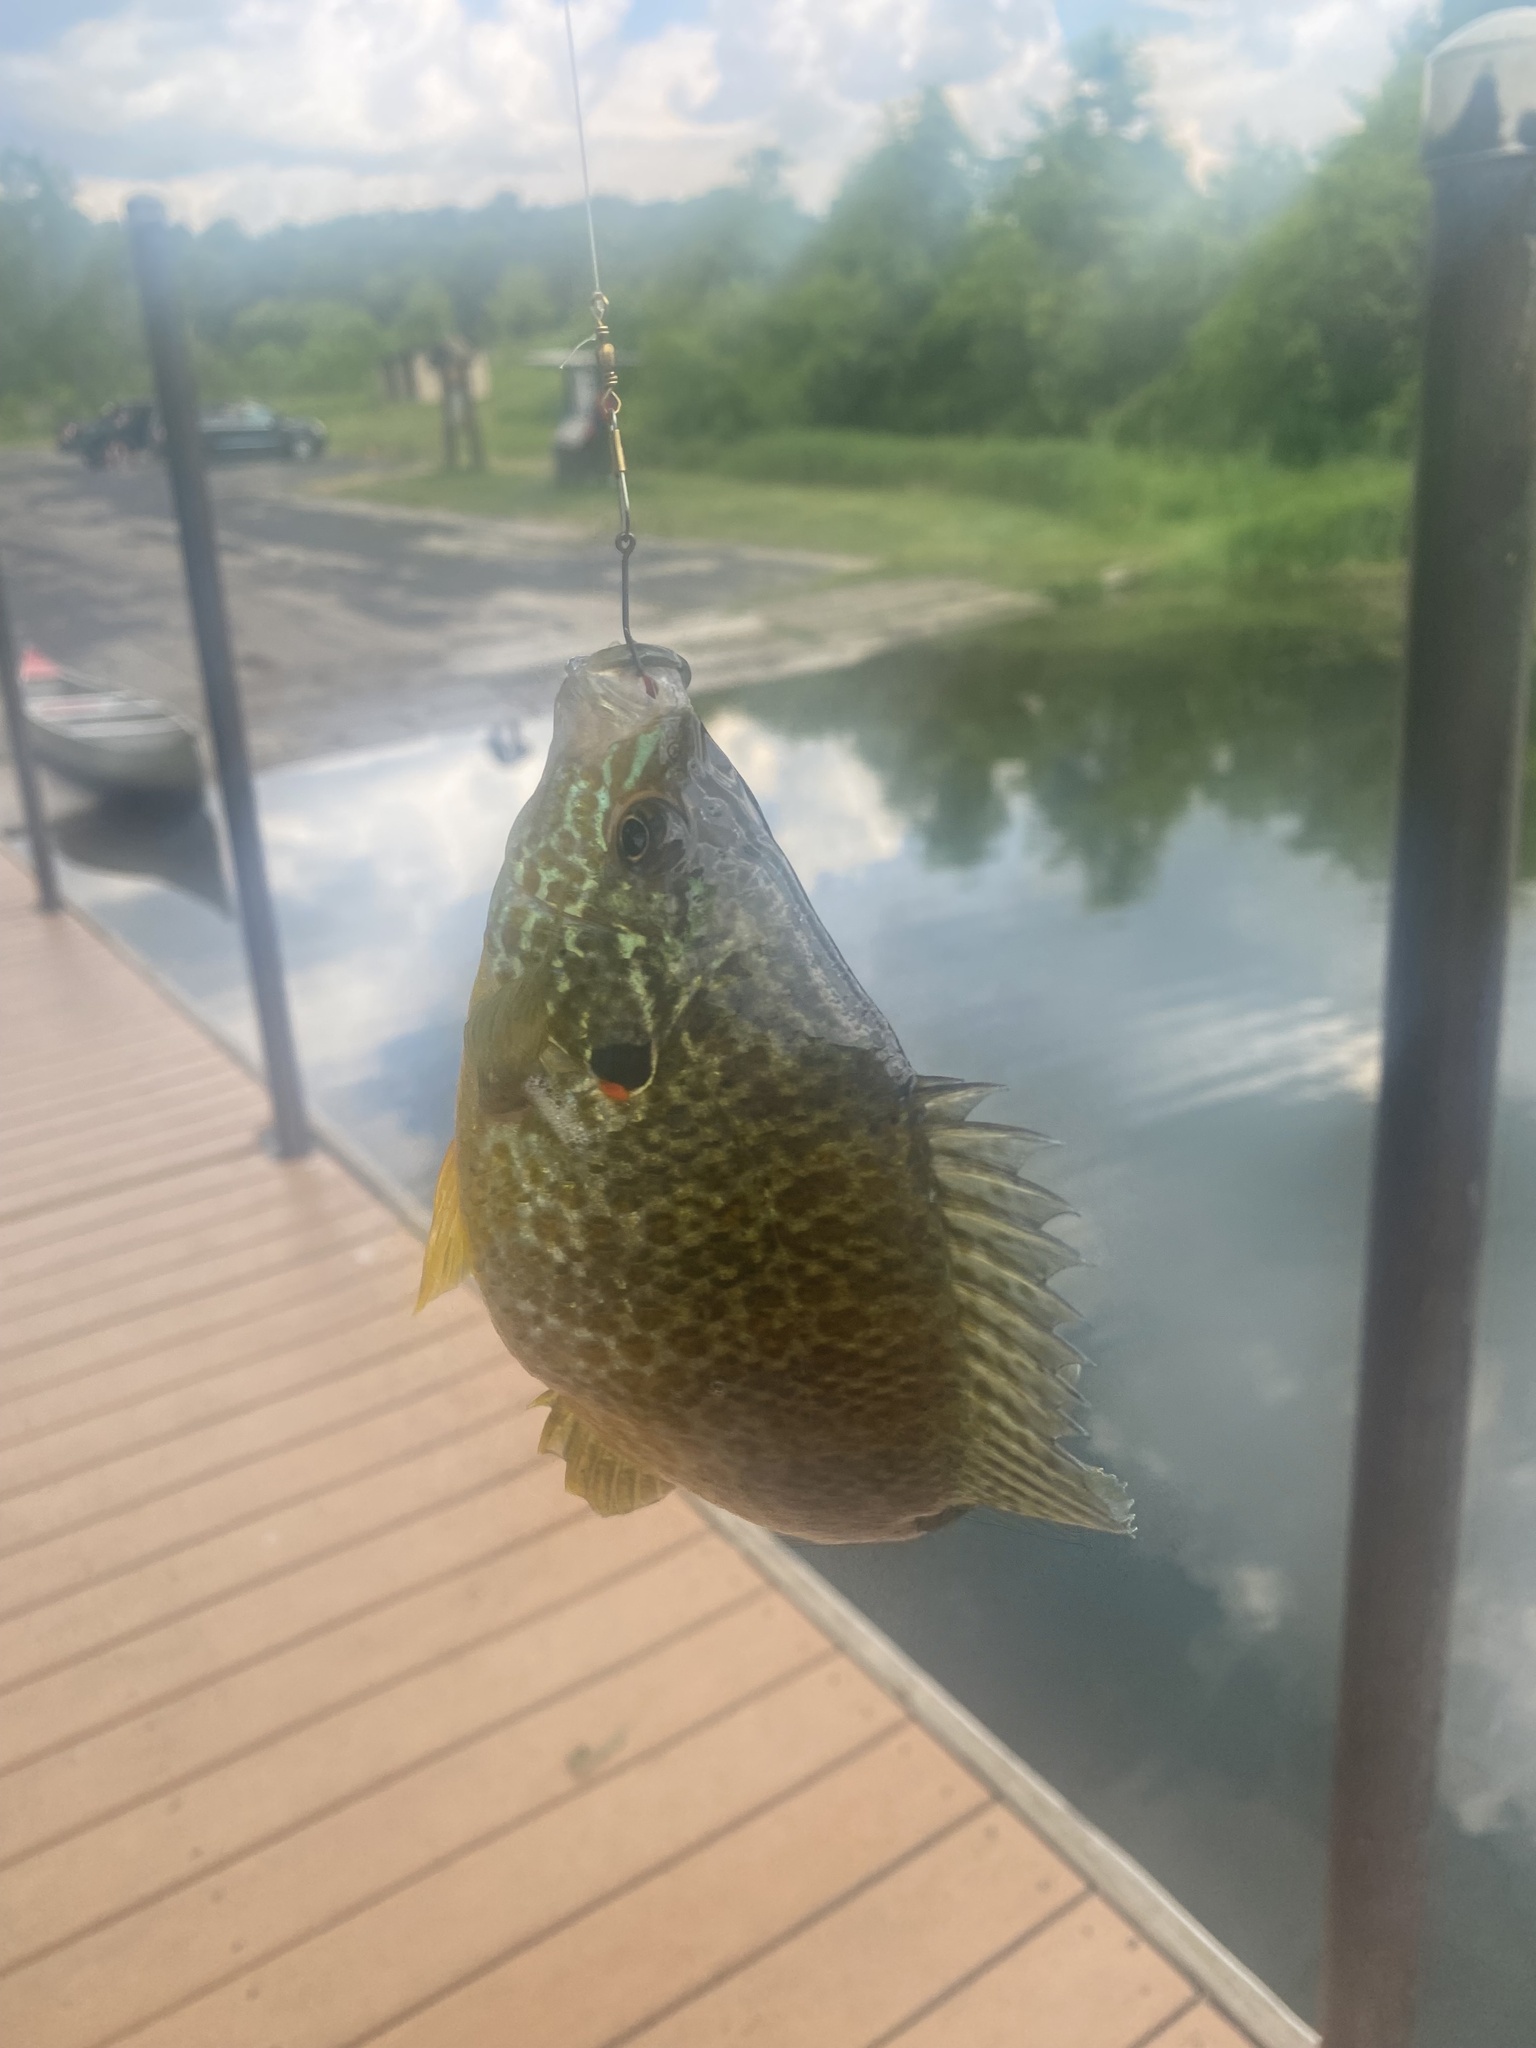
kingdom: Animalia
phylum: Chordata
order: Perciformes
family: Centrarchidae
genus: Lepomis
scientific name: Lepomis gibbosus
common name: Pumpkinseed
